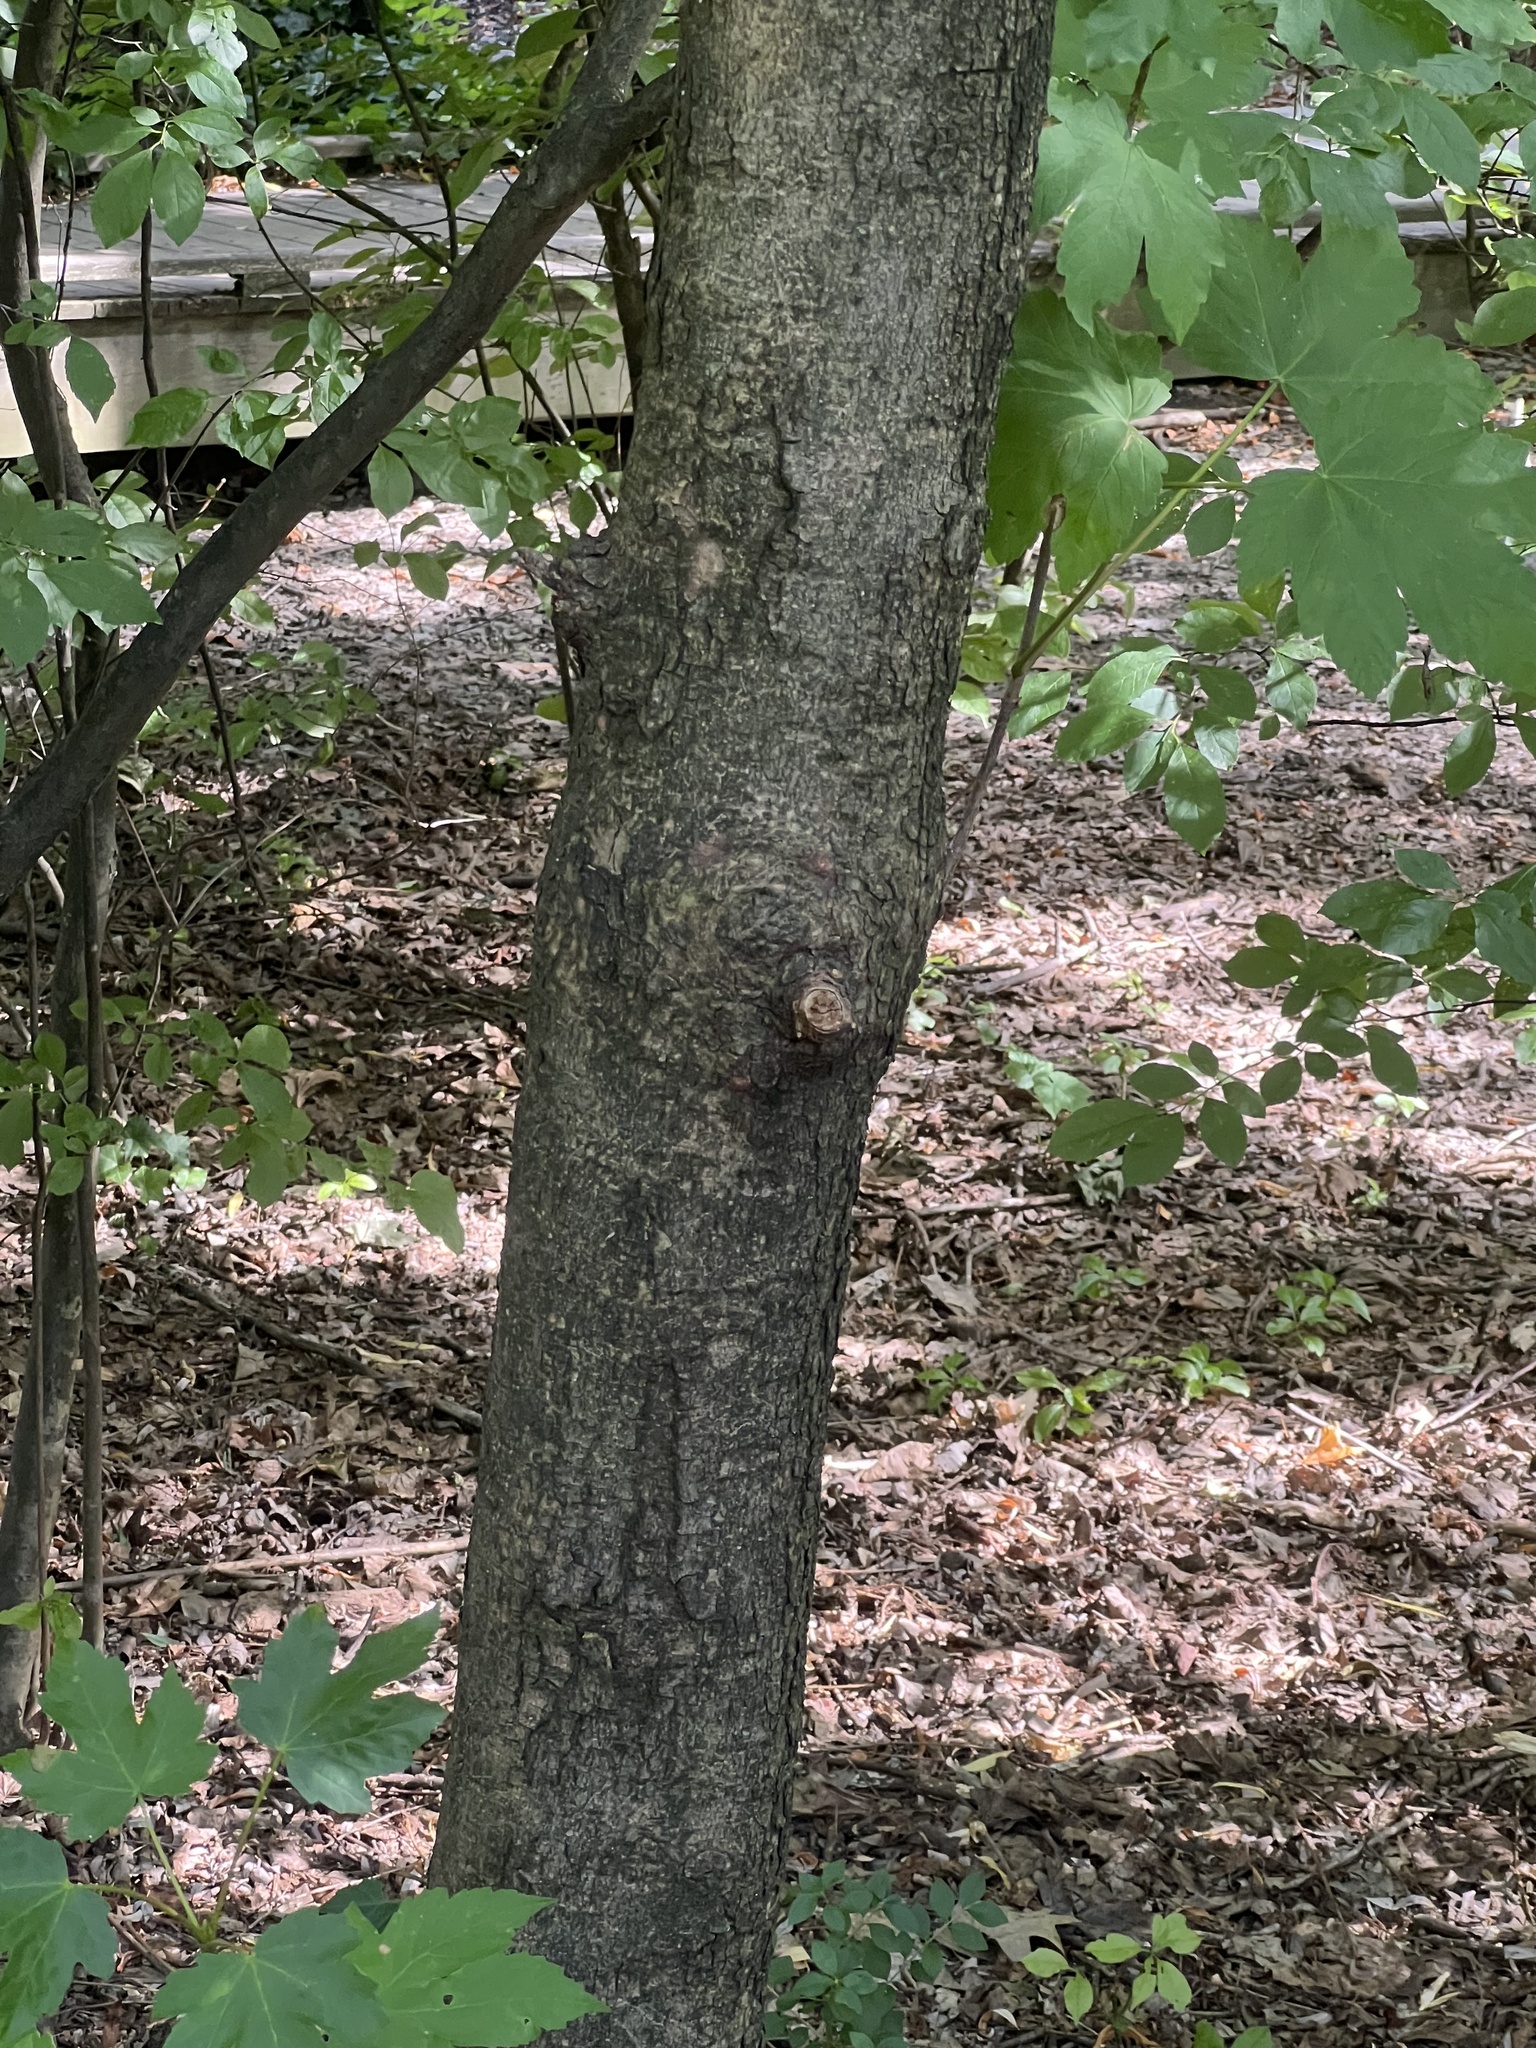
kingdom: Plantae
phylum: Tracheophyta
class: Magnoliopsida
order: Sapindales
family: Sapindaceae
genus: Acer
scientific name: Acer pseudoplatanus
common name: Sycamore
